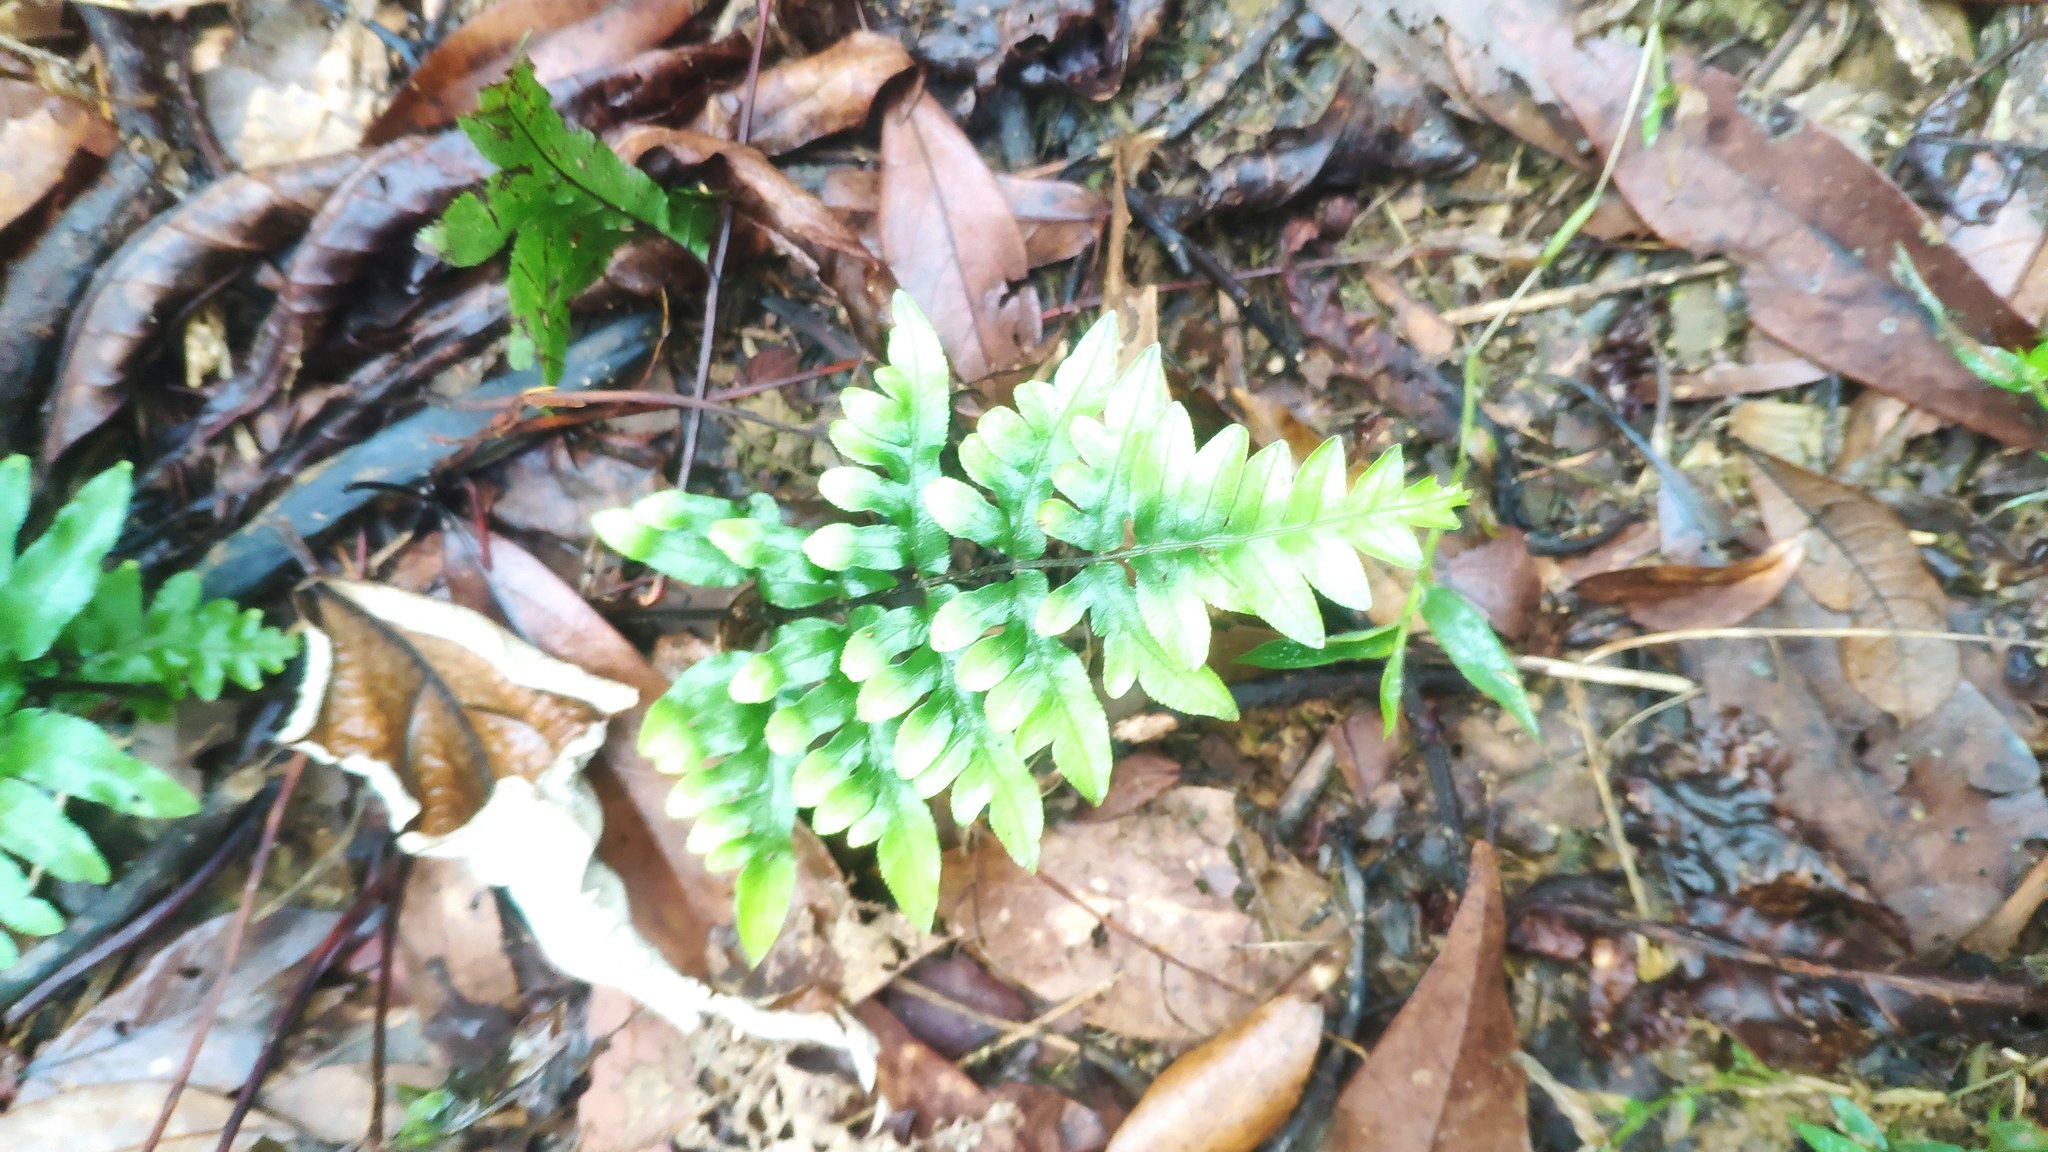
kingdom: Plantae
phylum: Tracheophyta
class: Polypodiopsida
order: Polypodiales
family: Pteridaceae
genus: Pteris
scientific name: Pteris semipinnata
